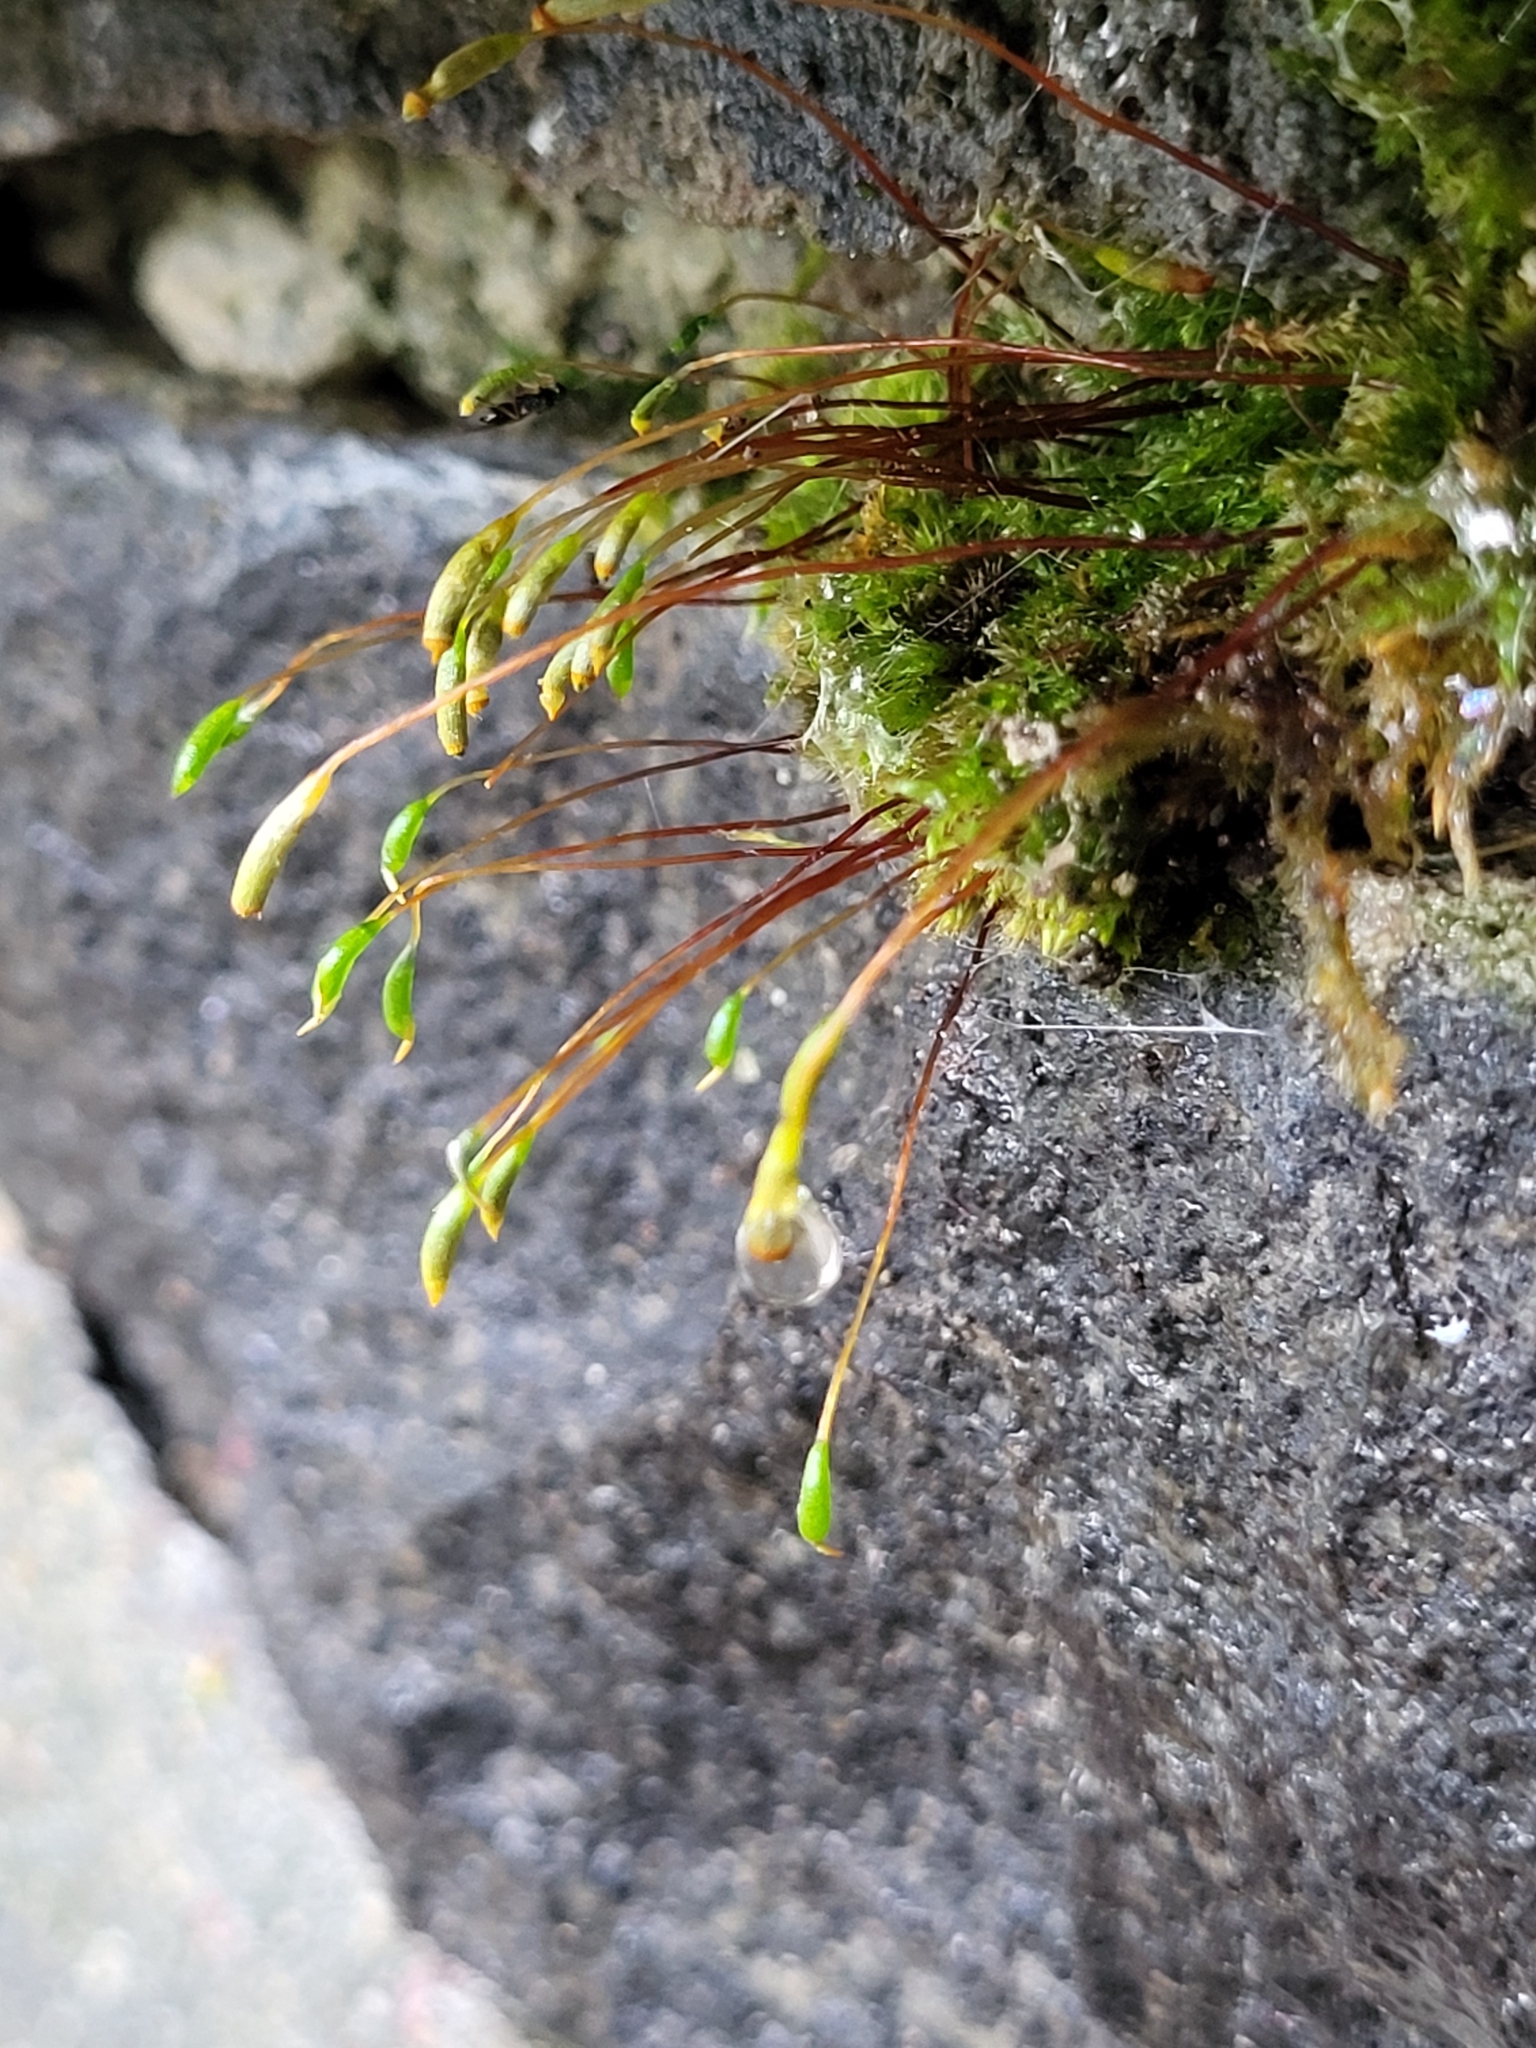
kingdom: Plantae
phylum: Bryophyta
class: Bryopsida
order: Hypnales
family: Amblystegiaceae
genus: Hygroamblystegium
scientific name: Hygroamblystegium varium
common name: Willow feather-moss
